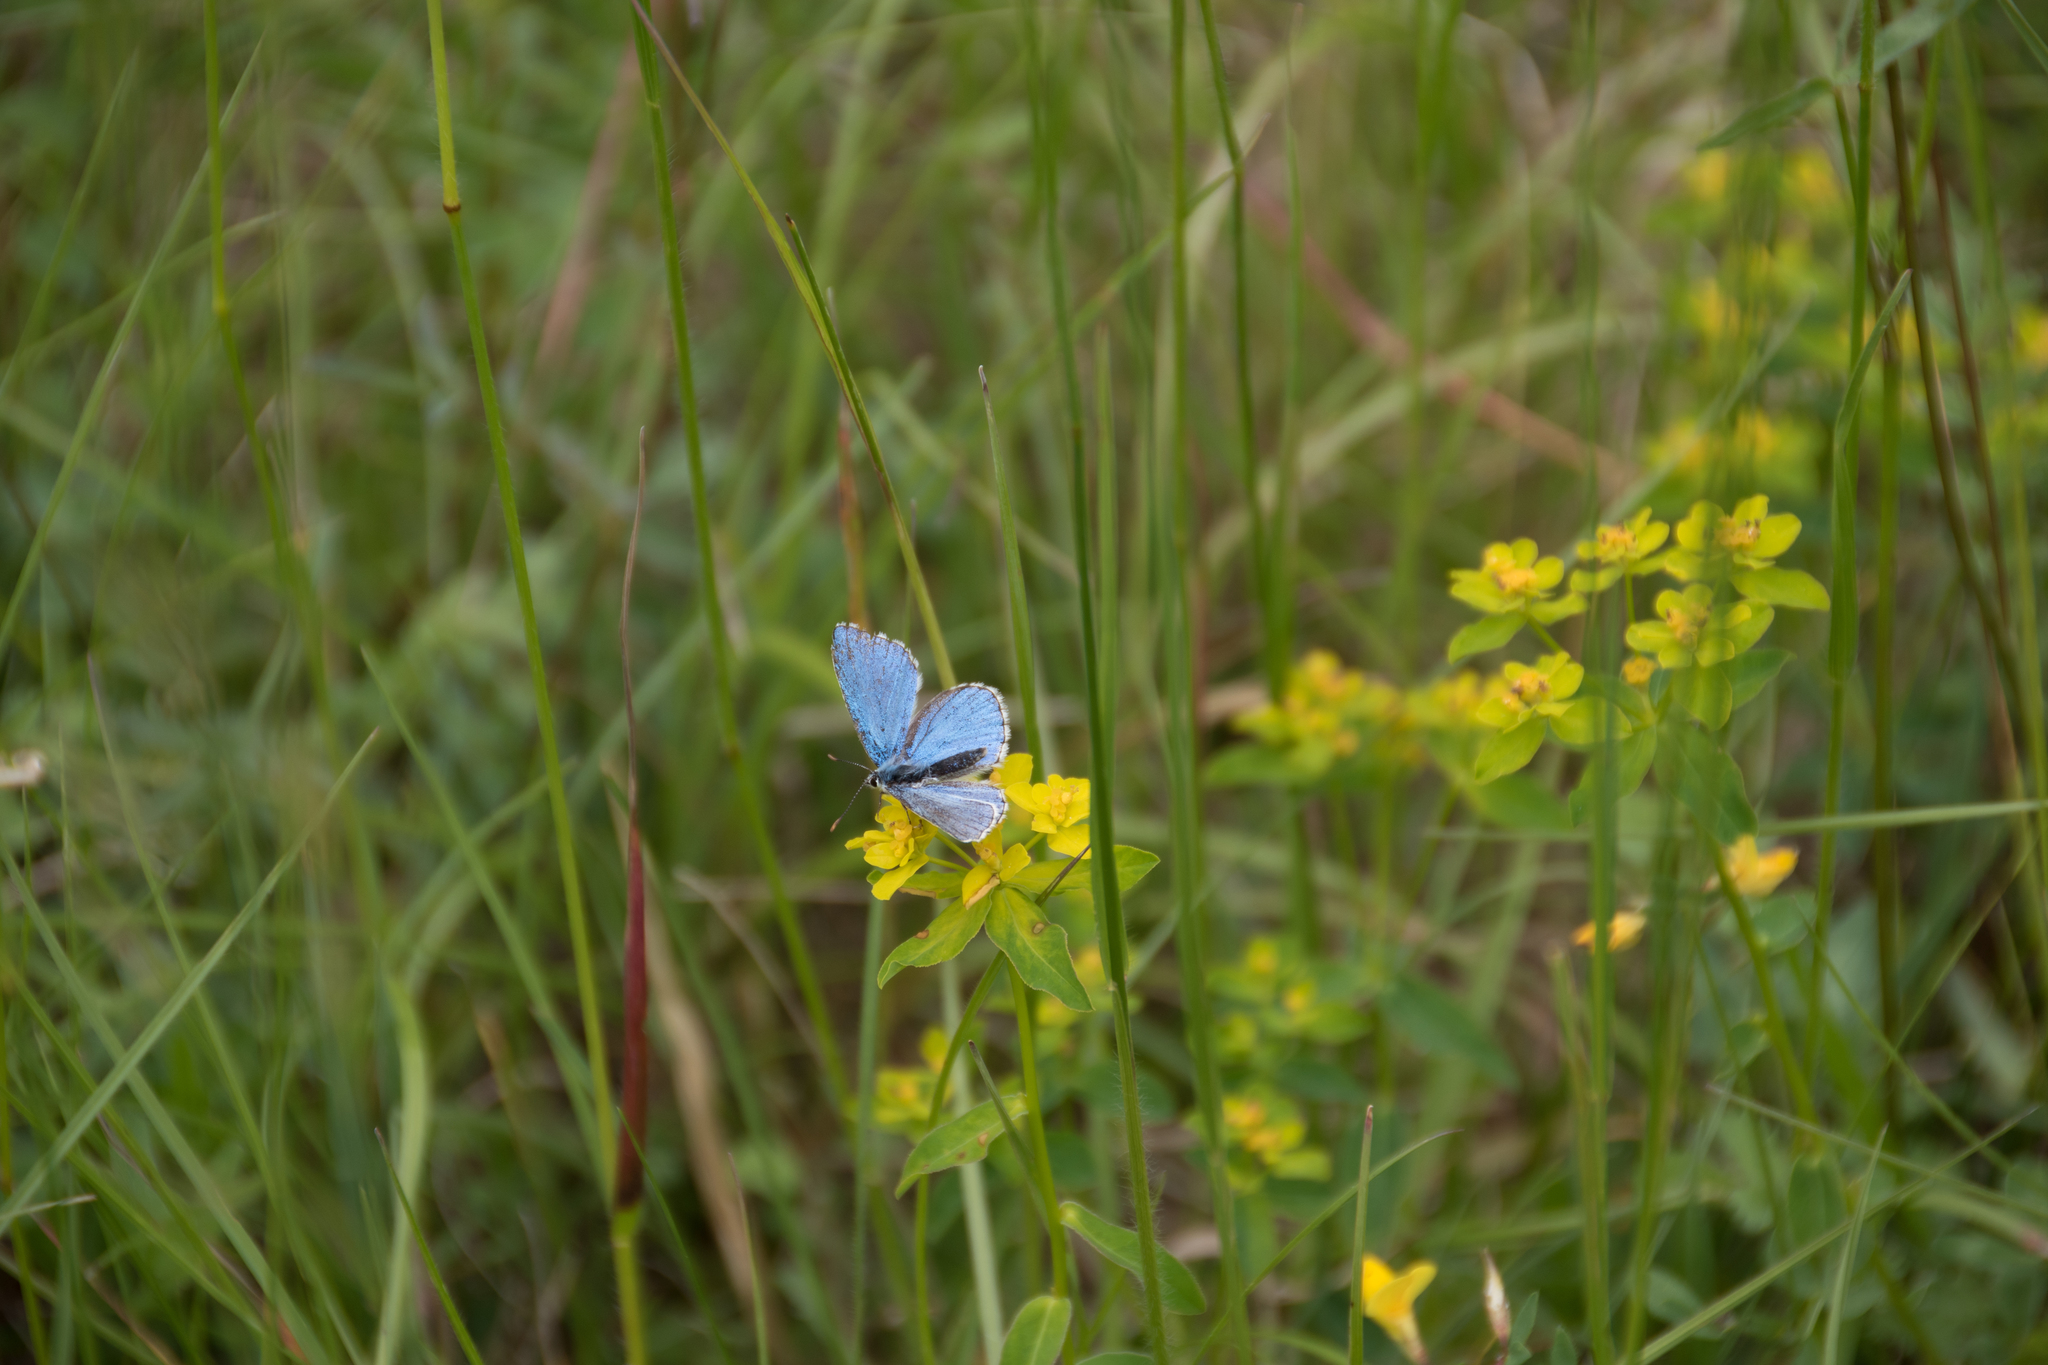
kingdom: Animalia
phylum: Arthropoda
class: Insecta
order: Lepidoptera
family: Lycaenidae
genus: Lysandra
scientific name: Lysandra bellargus
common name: Adonis blue
